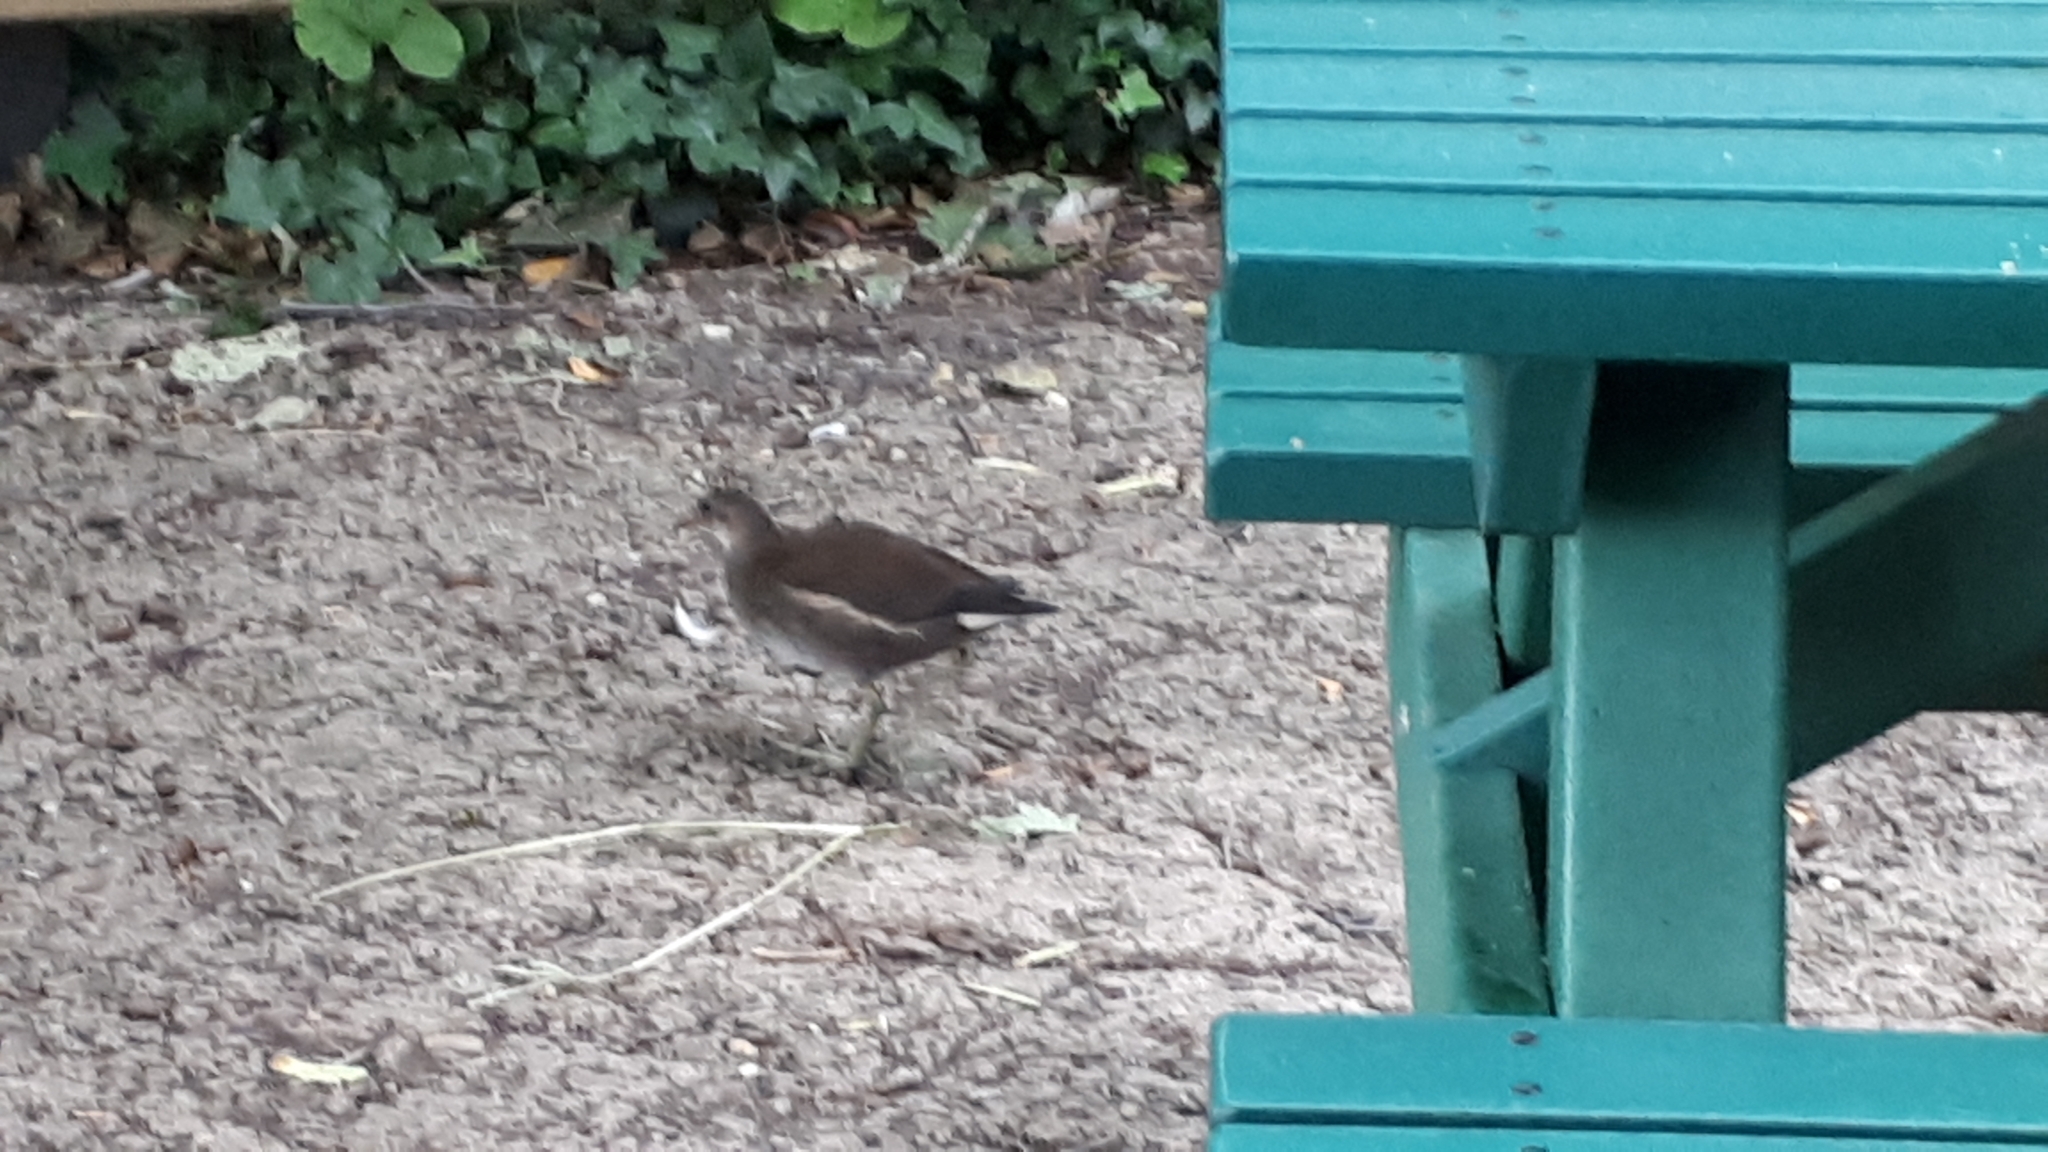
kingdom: Animalia
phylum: Chordata
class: Aves
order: Gruiformes
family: Rallidae
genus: Gallinula
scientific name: Gallinula chloropus
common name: Common moorhen
